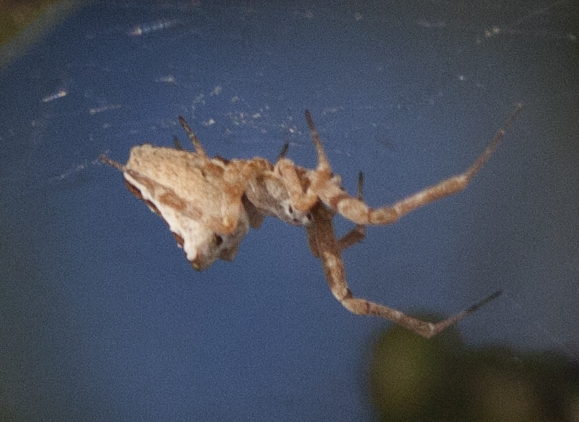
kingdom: Animalia
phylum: Arthropoda
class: Arachnida
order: Araneae
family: Uloboridae
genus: Philoponella
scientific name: Philoponella congregabilis
